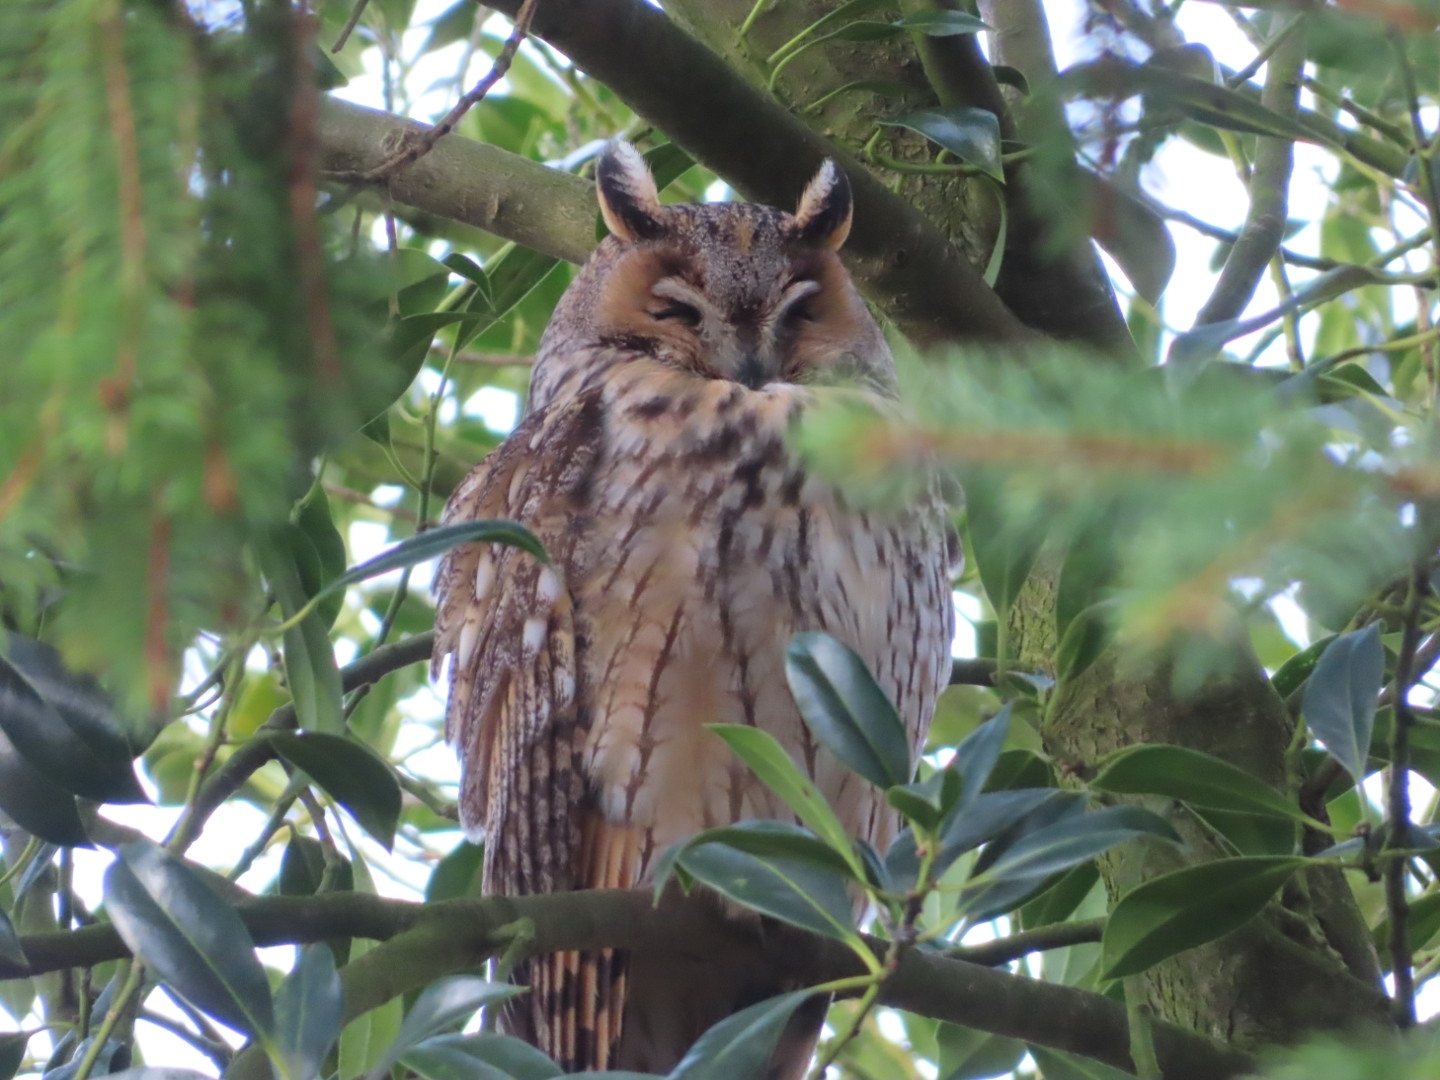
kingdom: Animalia
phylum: Chordata
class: Aves
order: Strigiformes
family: Strigidae
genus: Asio
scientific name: Asio otus
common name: Long-eared owl
